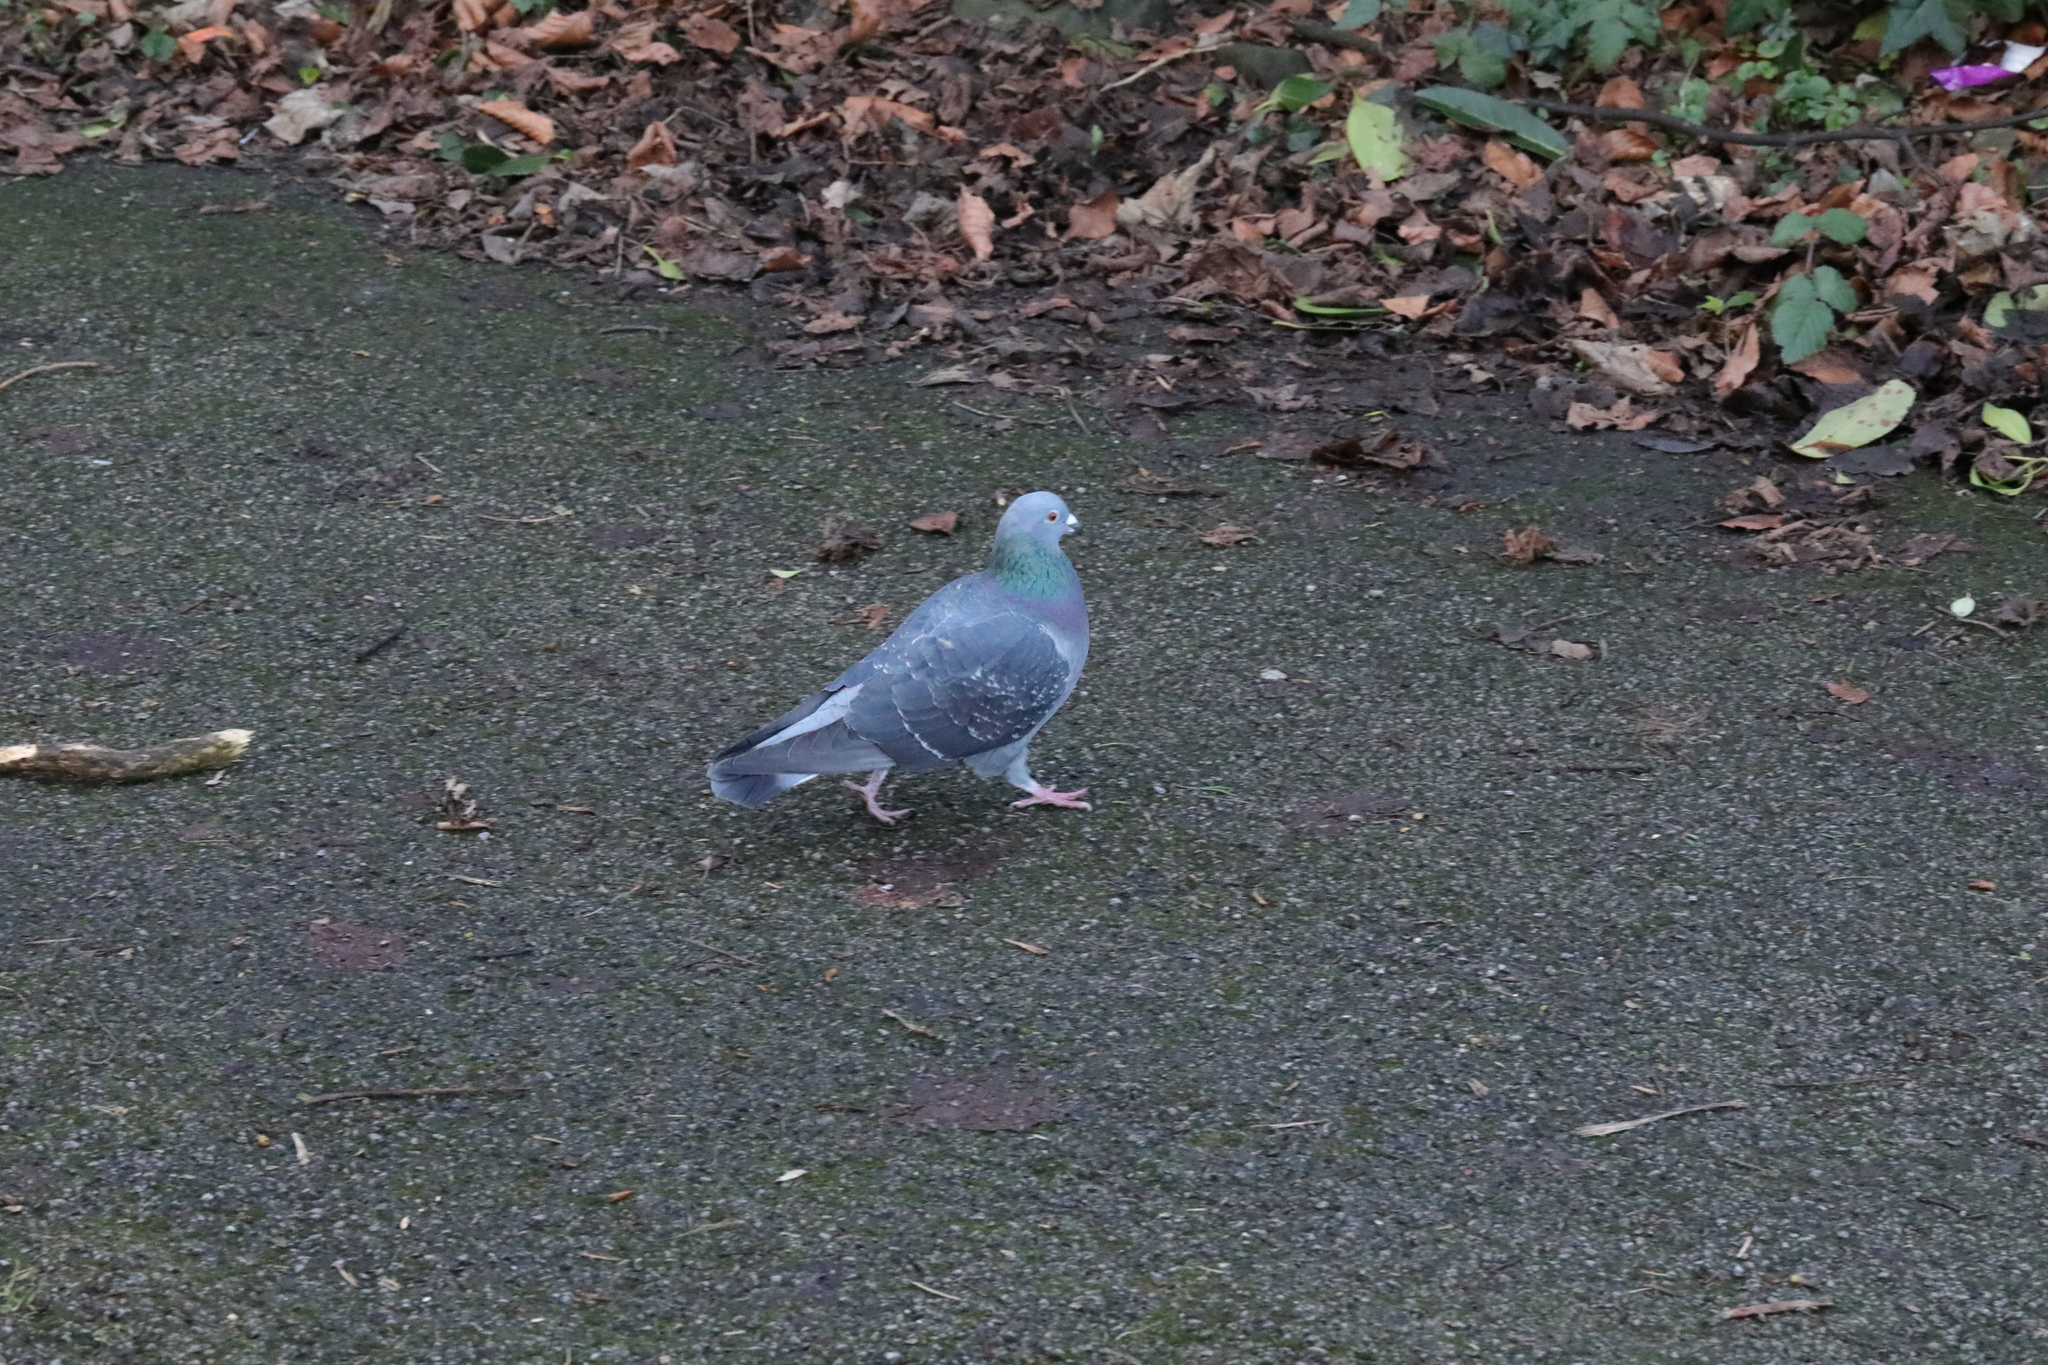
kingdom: Animalia
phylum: Chordata
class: Aves
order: Columbiformes
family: Columbidae
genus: Columba
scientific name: Columba livia
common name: Rock pigeon
